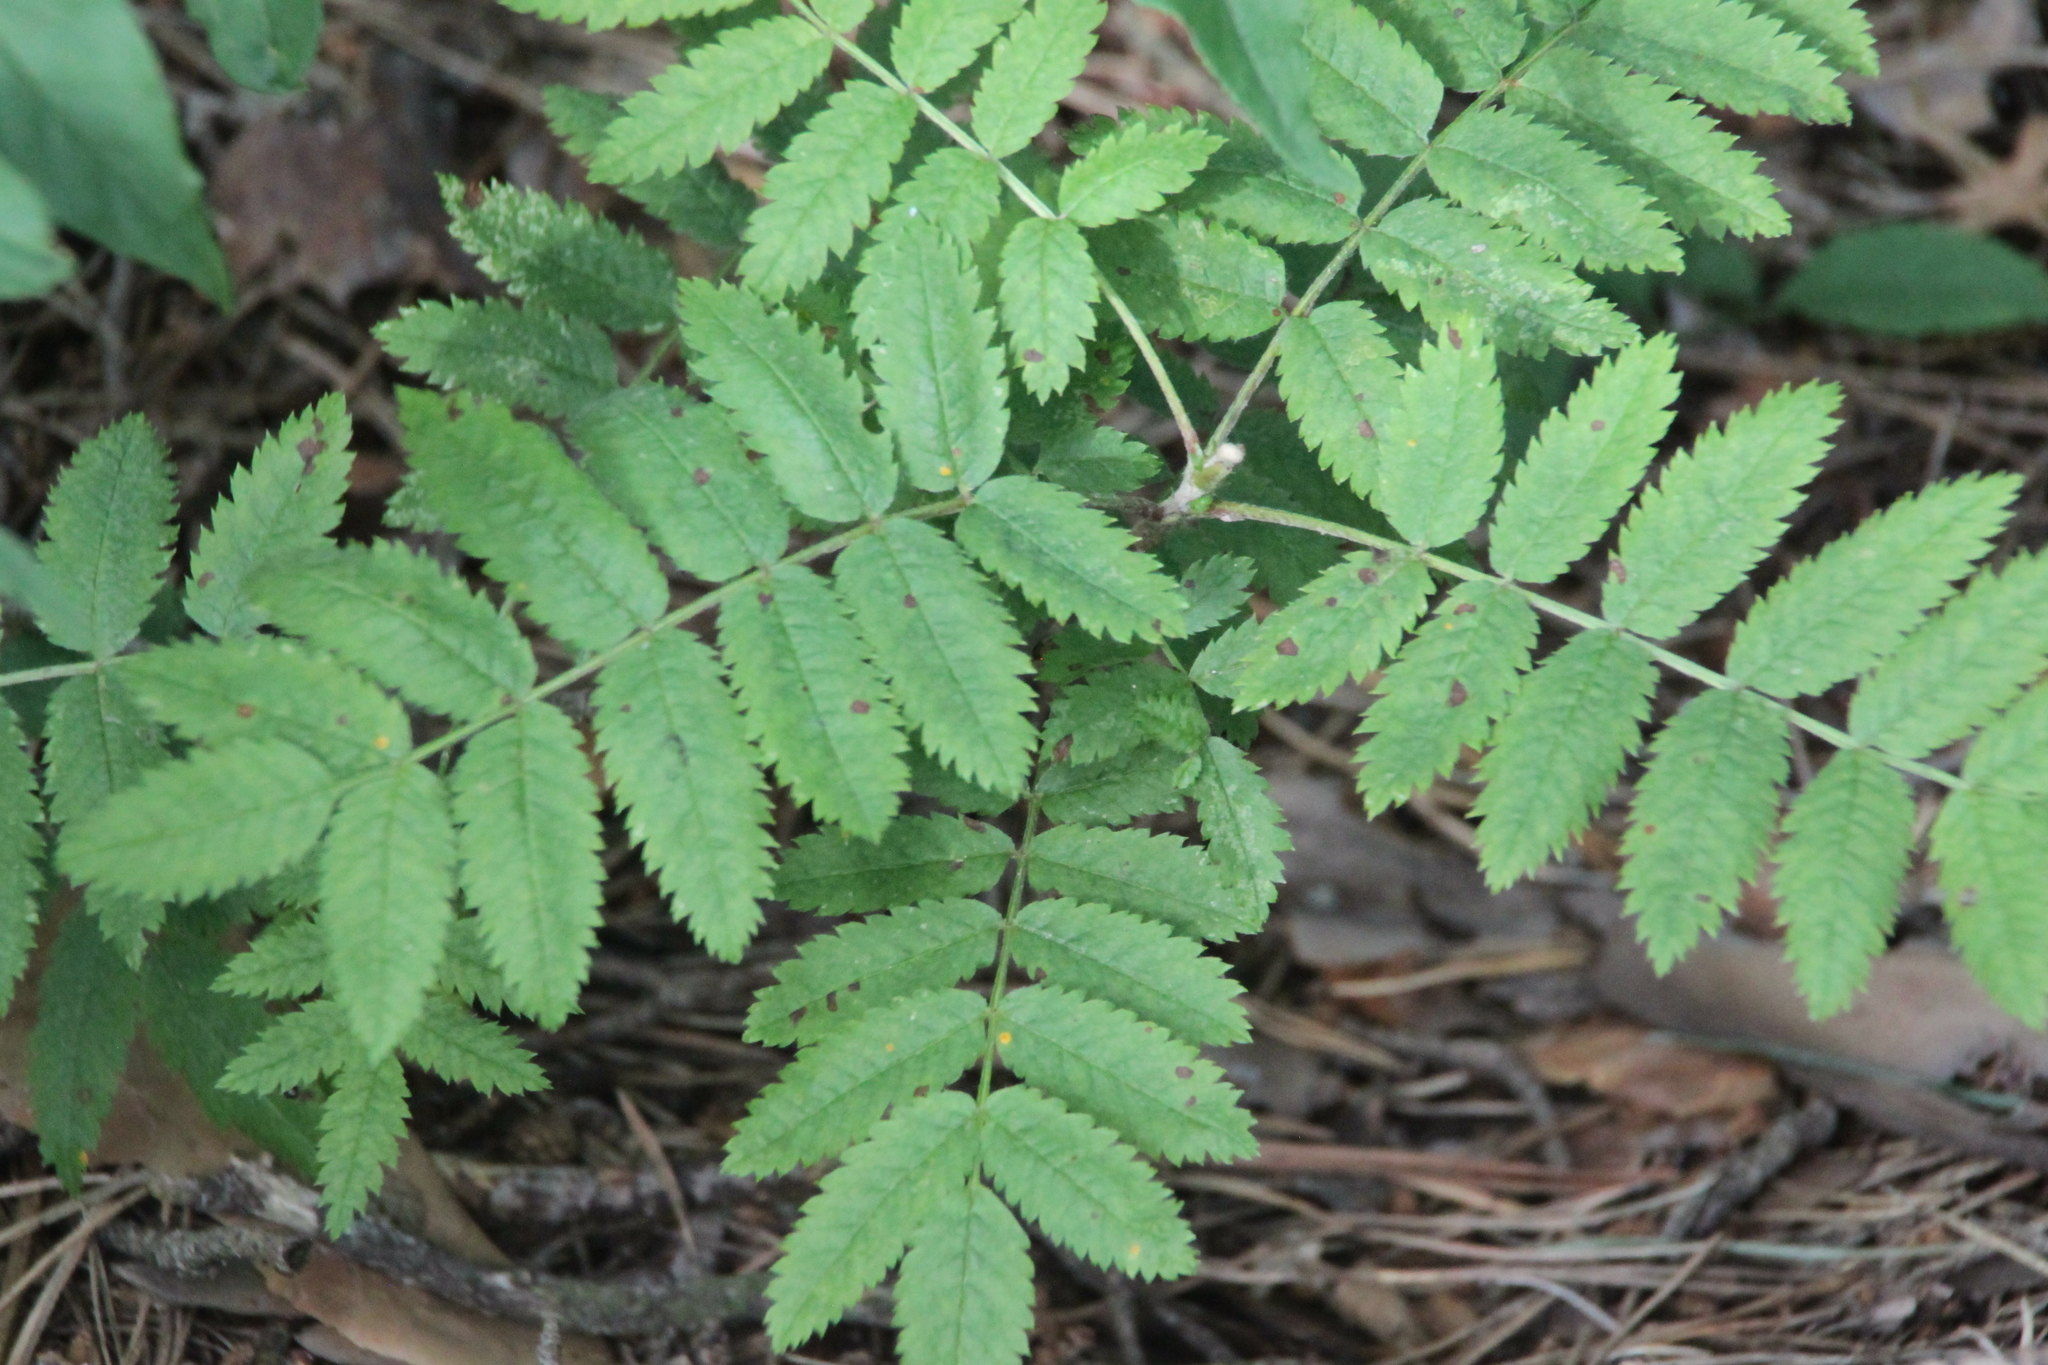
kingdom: Plantae
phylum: Tracheophyta
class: Magnoliopsida
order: Rosales
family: Rosaceae
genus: Sorbus
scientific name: Sorbus aucuparia
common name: Rowan
